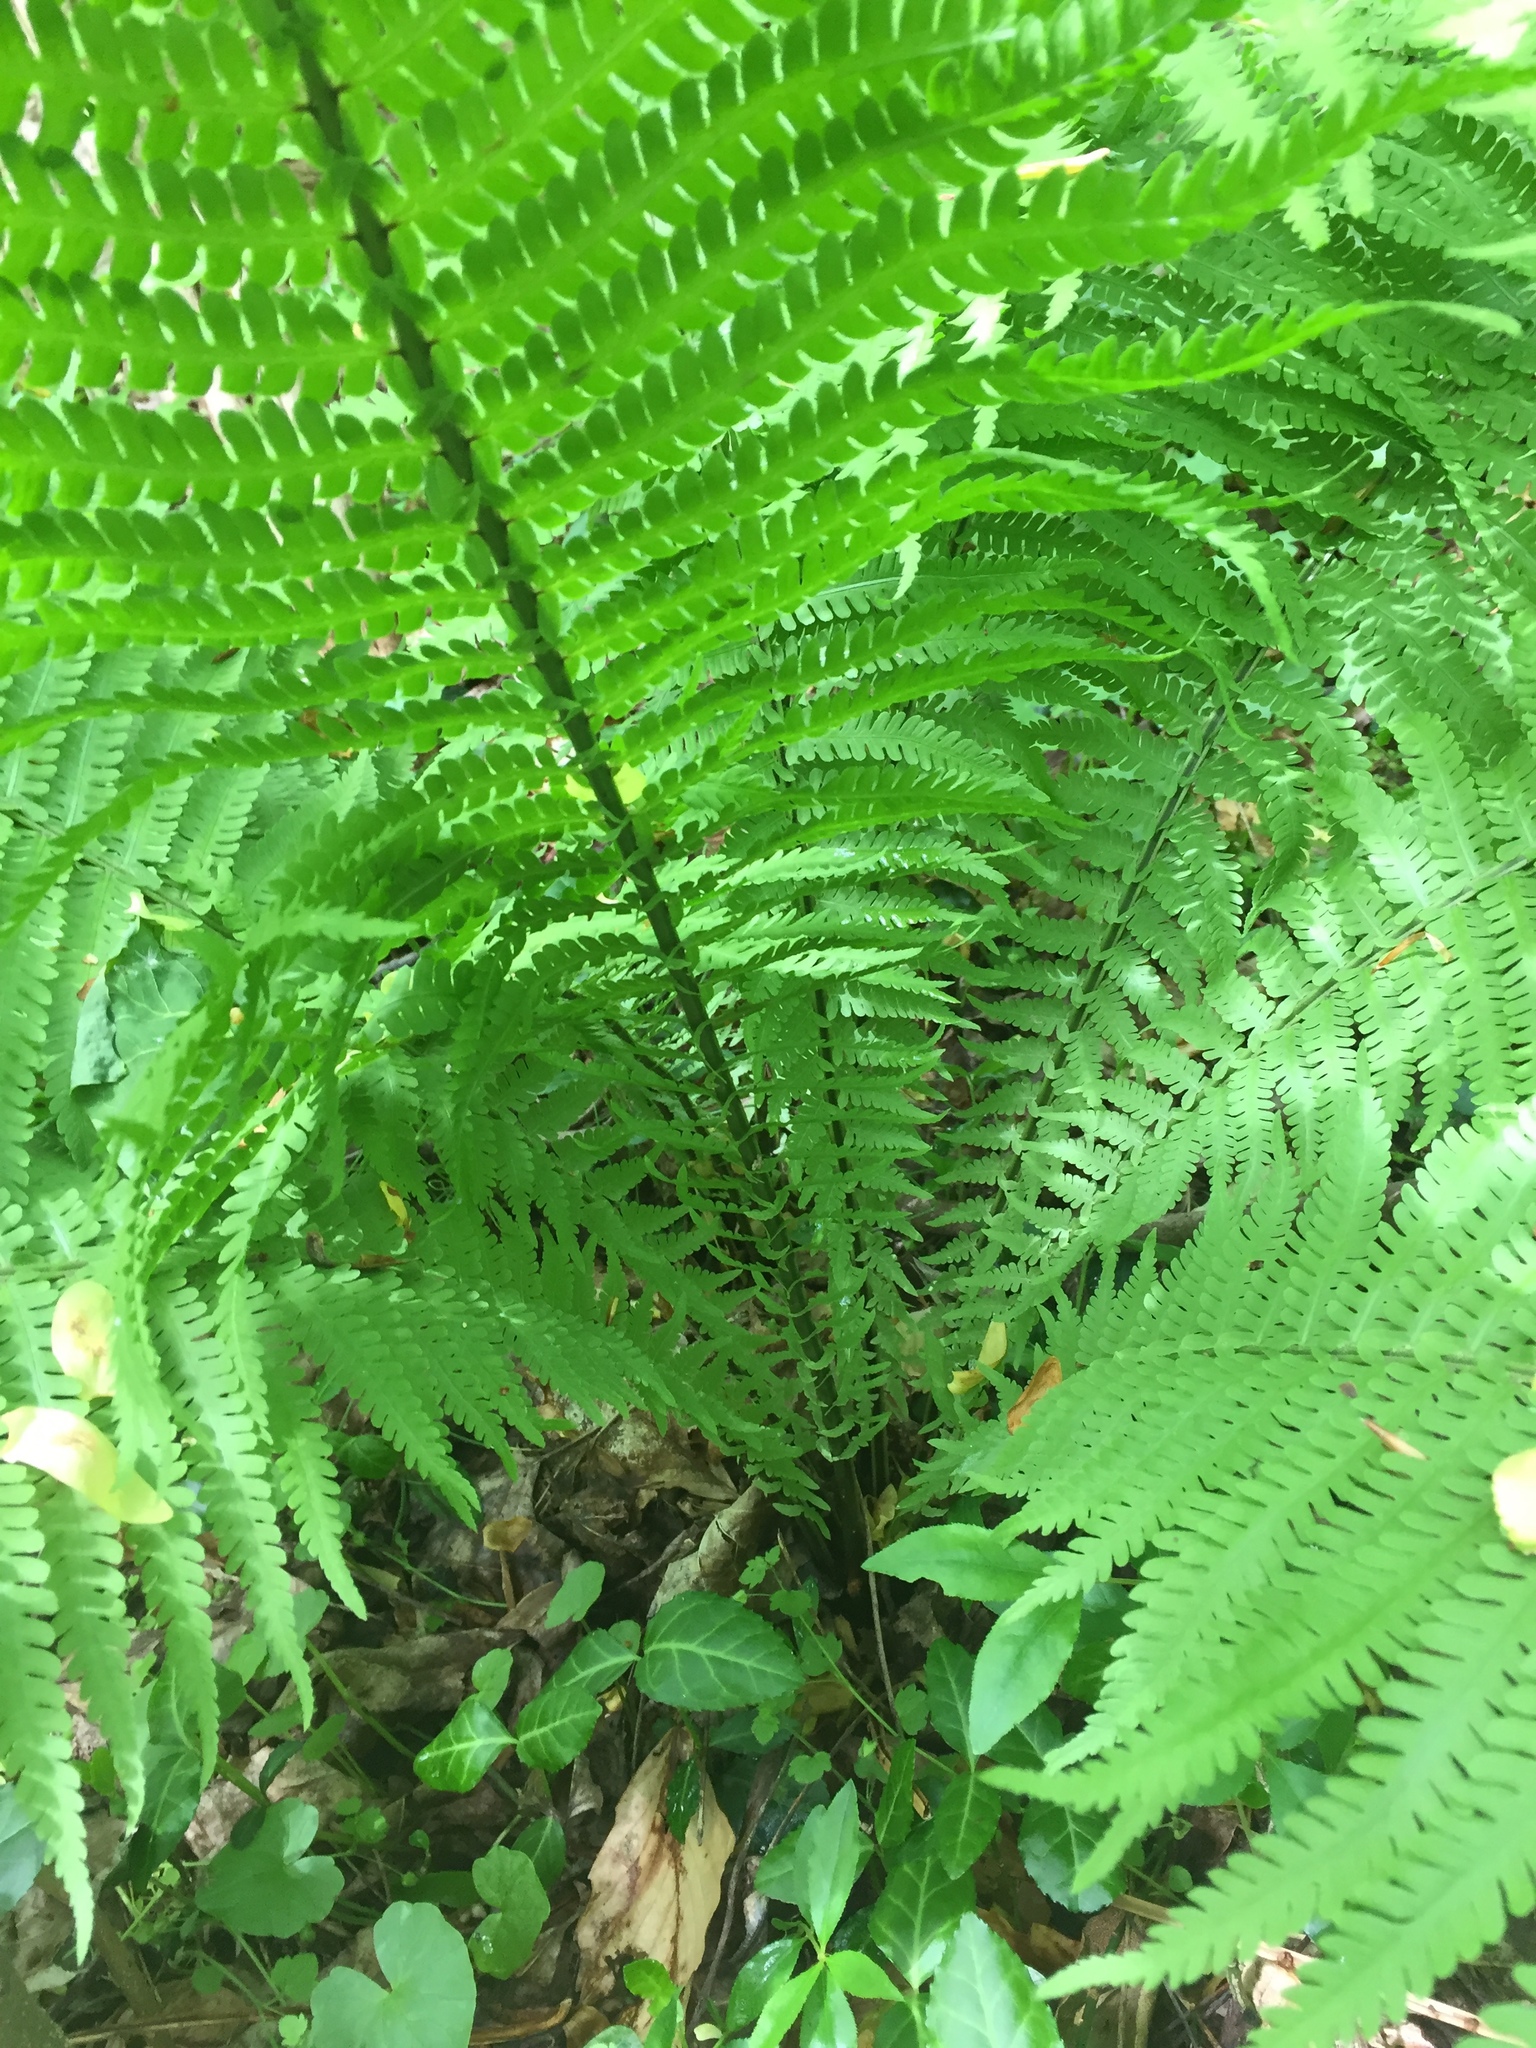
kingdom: Plantae
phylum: Tracheophyta
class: Polypodiopsida
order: Polypodiales
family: Onocleaceae
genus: Matteuccia
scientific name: Matteuccia struthiopteris
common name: Ostrich fern
